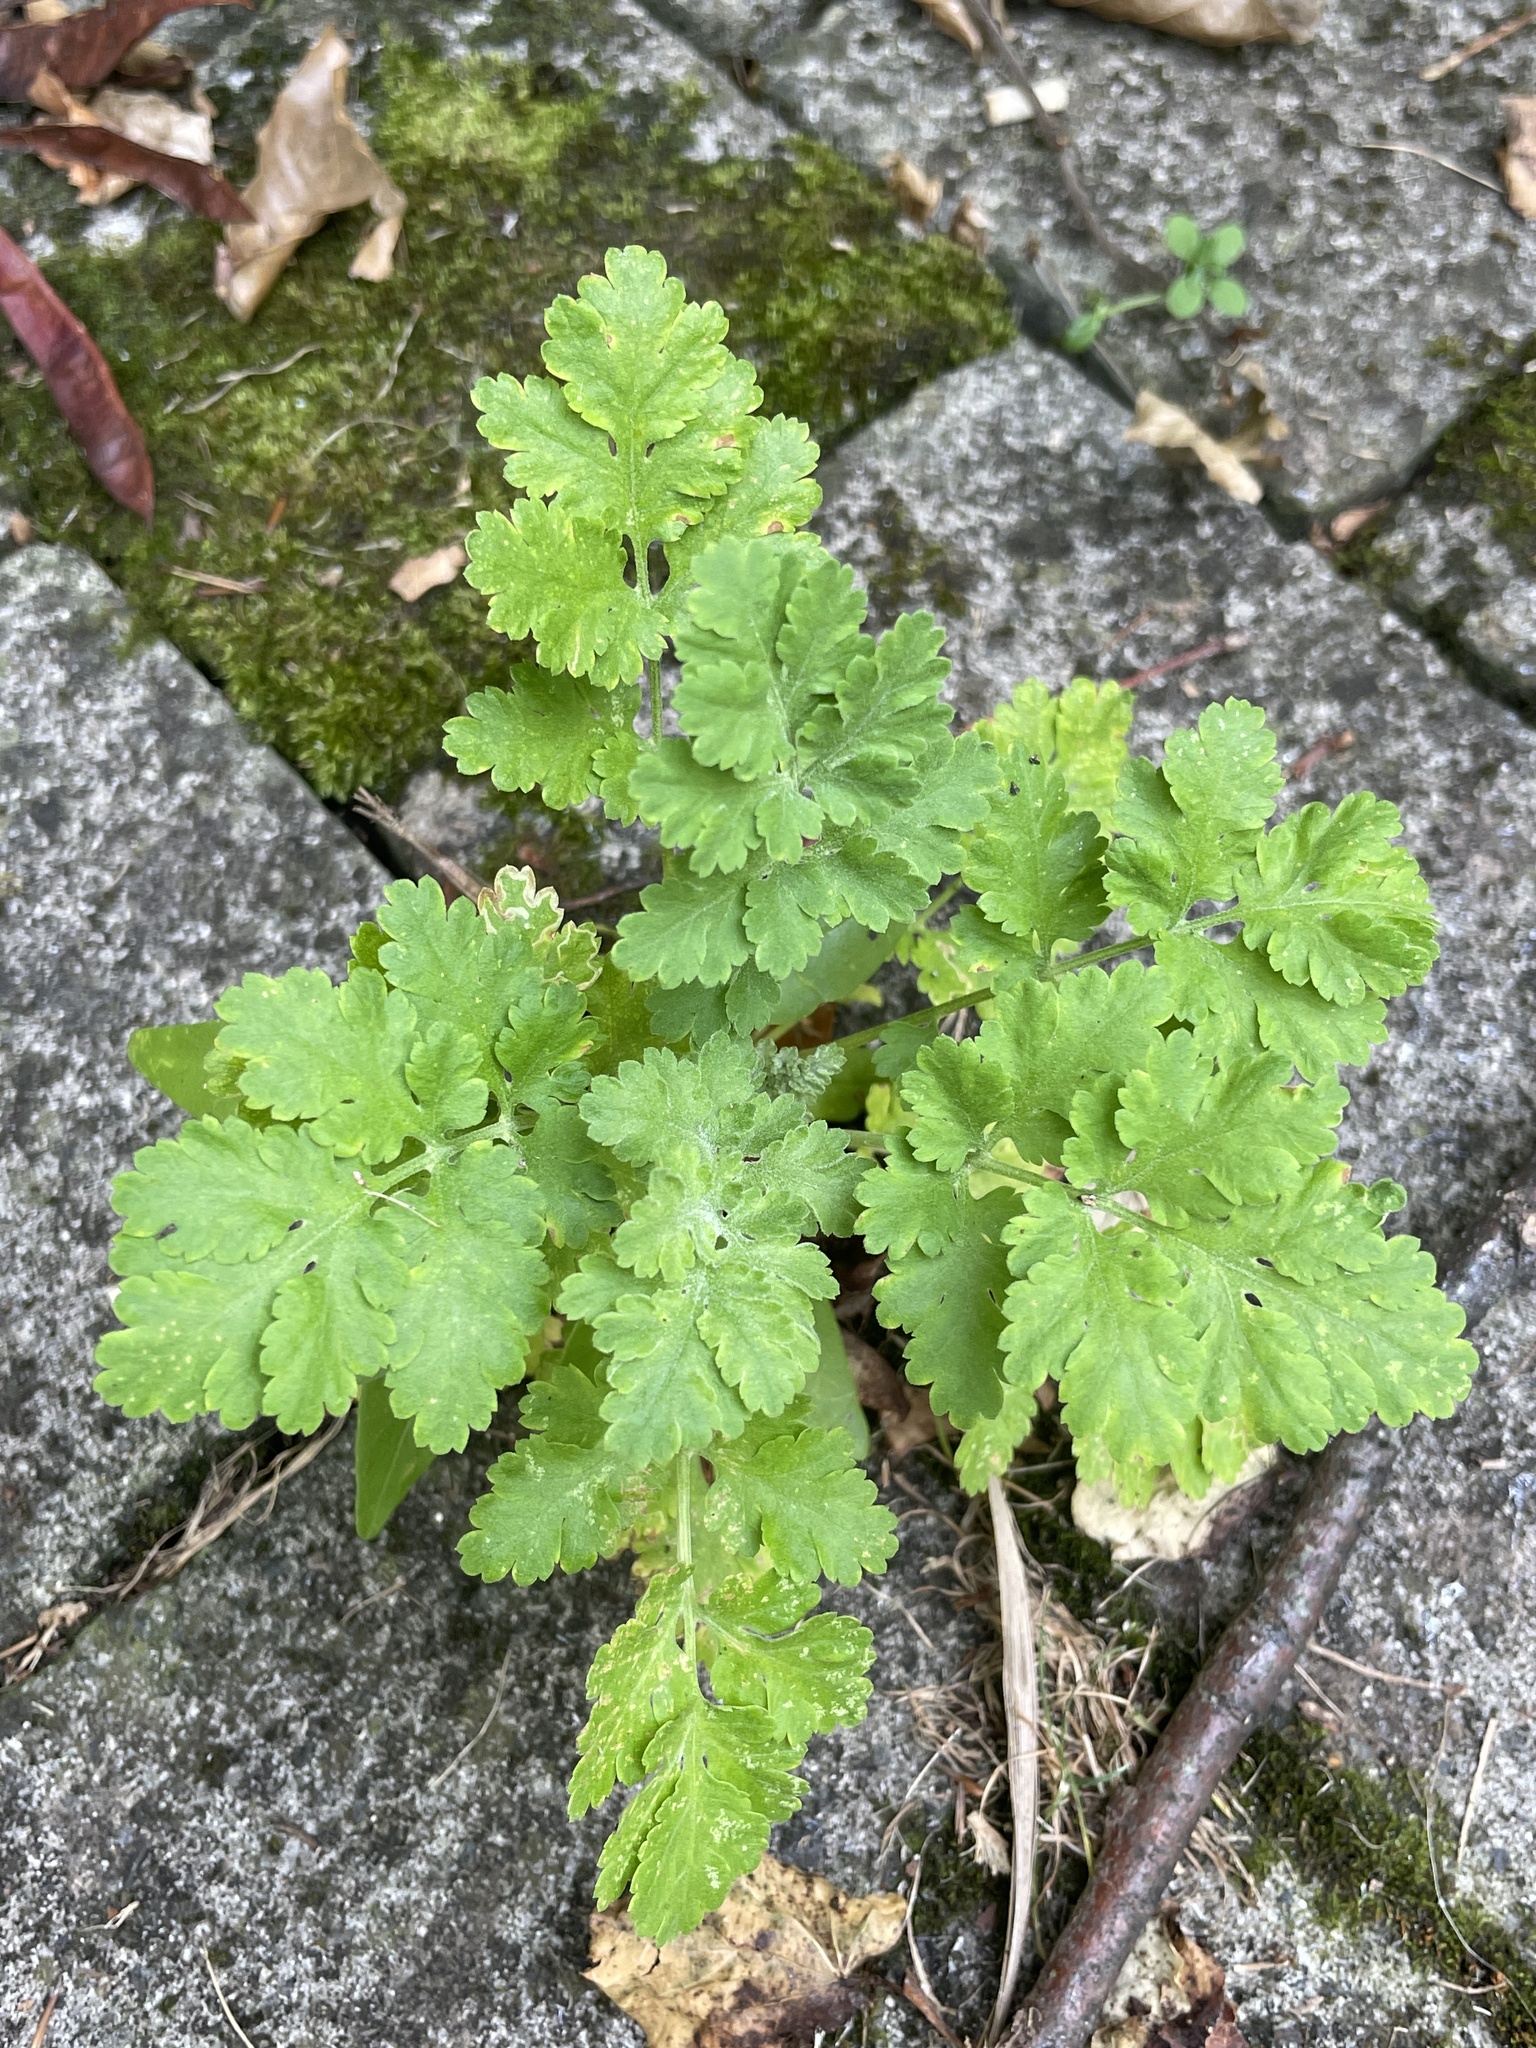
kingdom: Plantae
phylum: Tracheophyta
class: Magnoliopsida
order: Asterales
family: Asteraceae
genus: Tanacetum
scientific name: Tanacetum parthenium
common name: Feverfew
